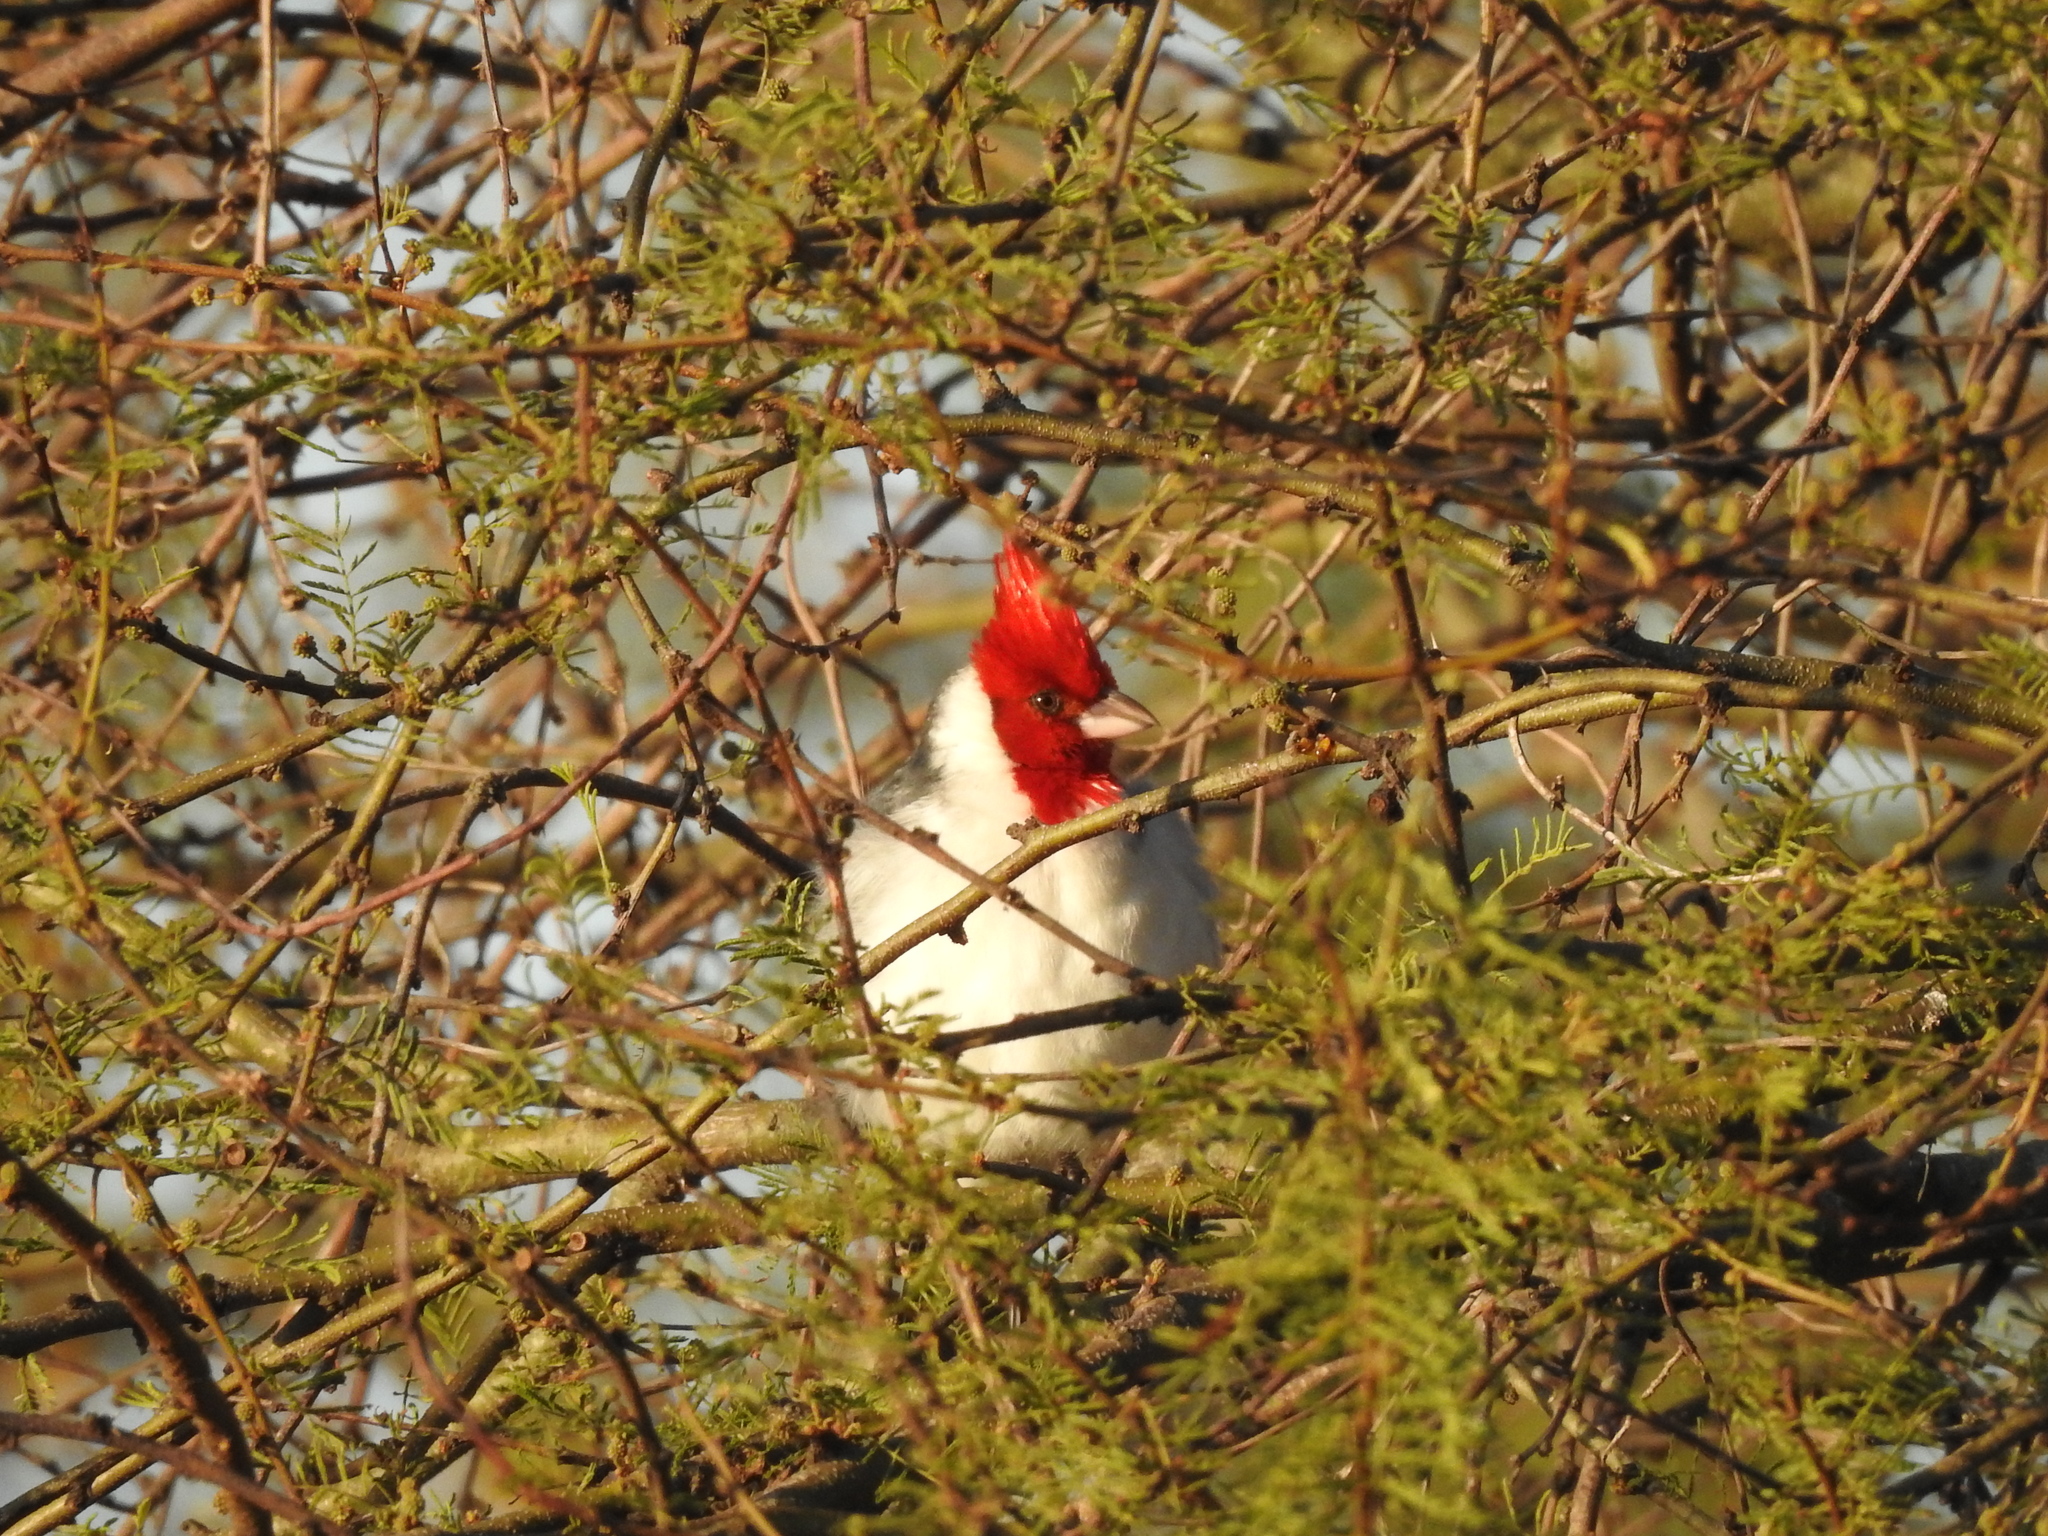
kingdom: Animalia
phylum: Chordata
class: Aves
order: Passeriformes
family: Thraupidae
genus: Paroaria
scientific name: Paroaria coronata
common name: Red-crested cardinal
